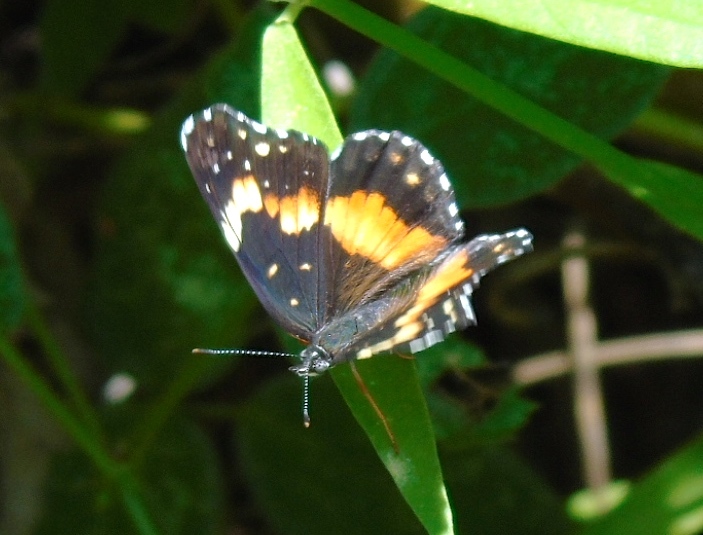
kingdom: Animalia
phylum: Arthropoda
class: Insecta
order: Lepidoptera
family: Nymphalidae
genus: Chlosyne
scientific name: Chlosyne lacinia
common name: Bordered patch
